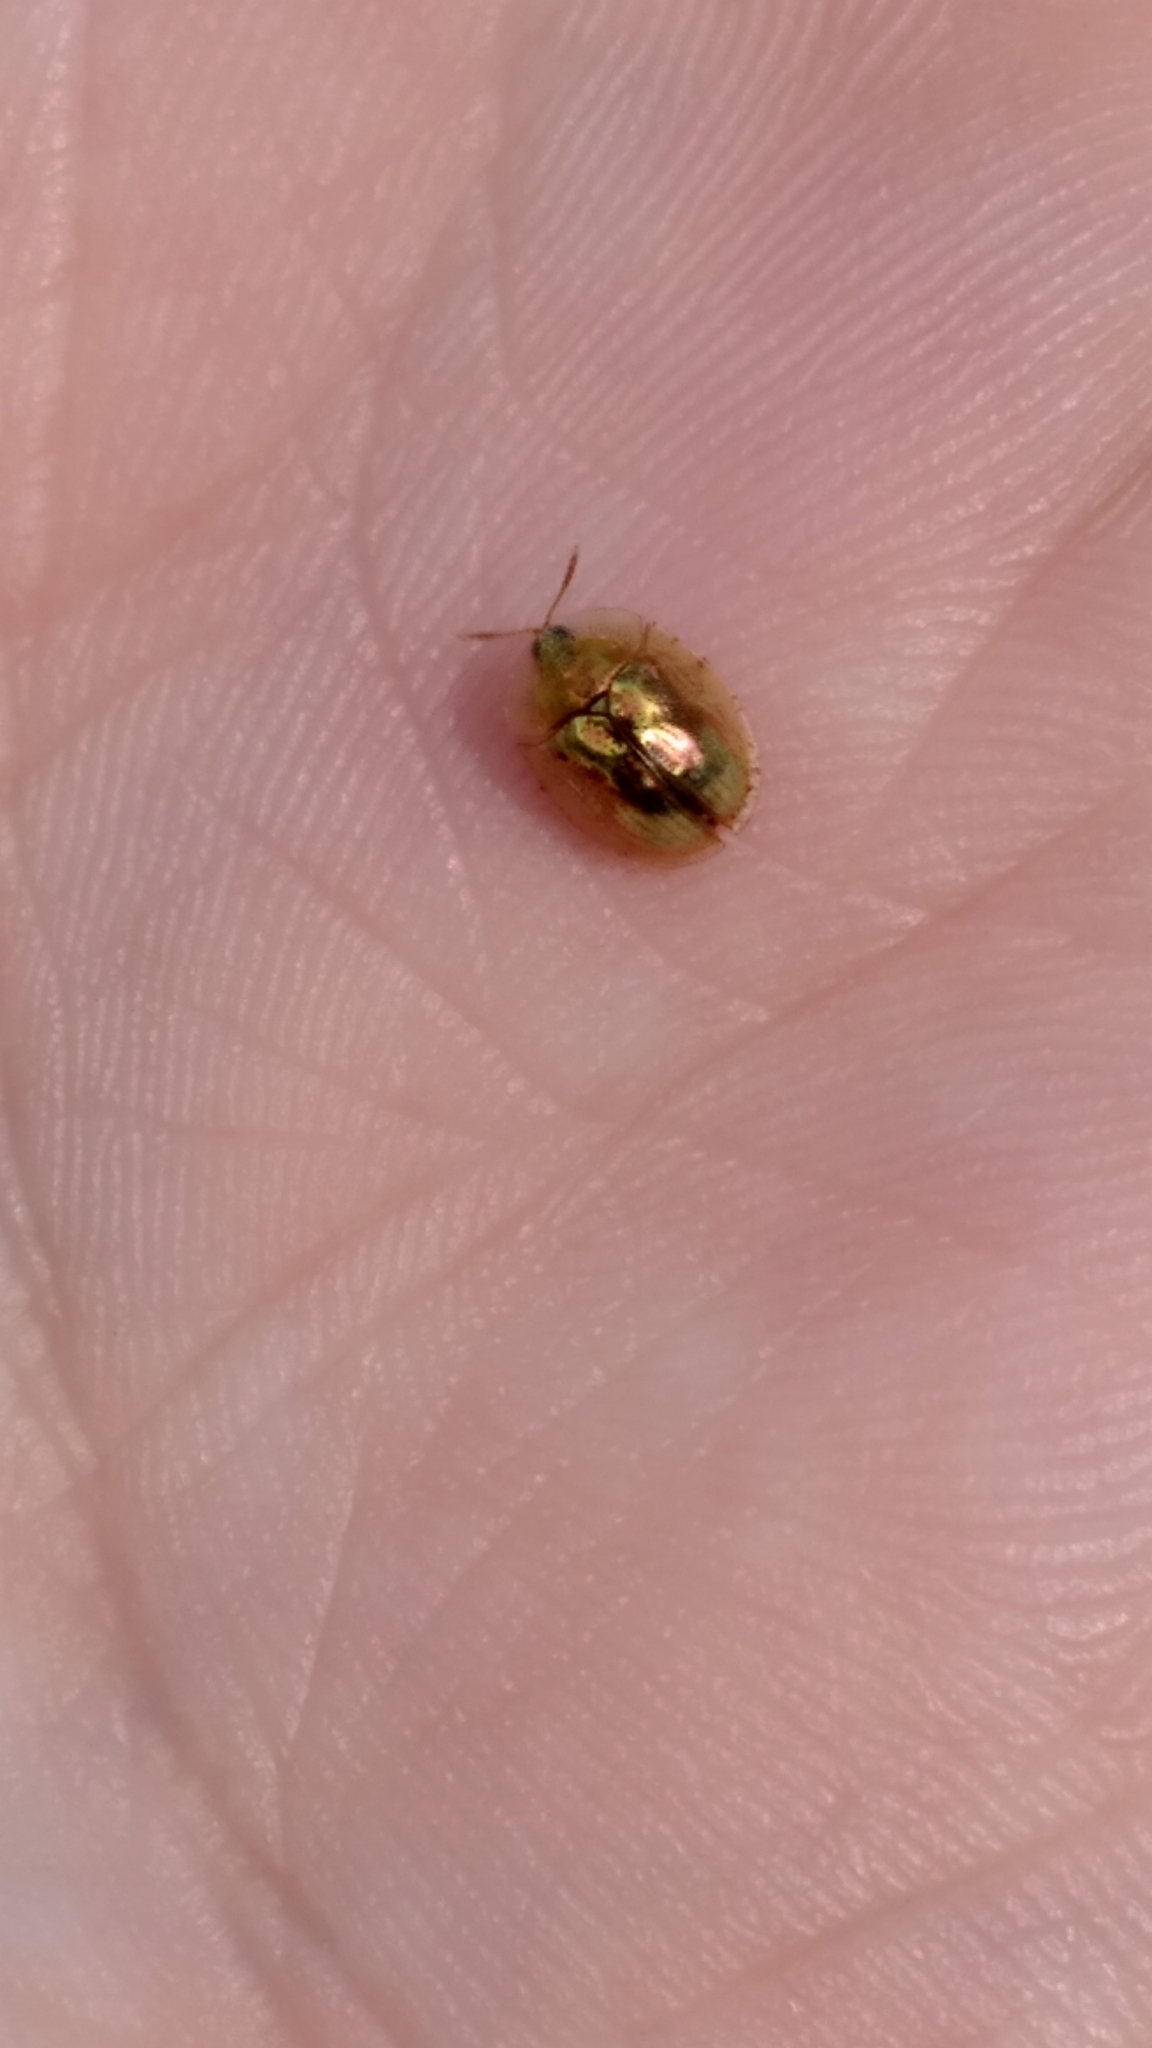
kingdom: Animalia
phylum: Arthropoda
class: Insecta
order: Coleoptera
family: Chrysomelidae
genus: Cassida
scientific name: Cassida subreticulata
